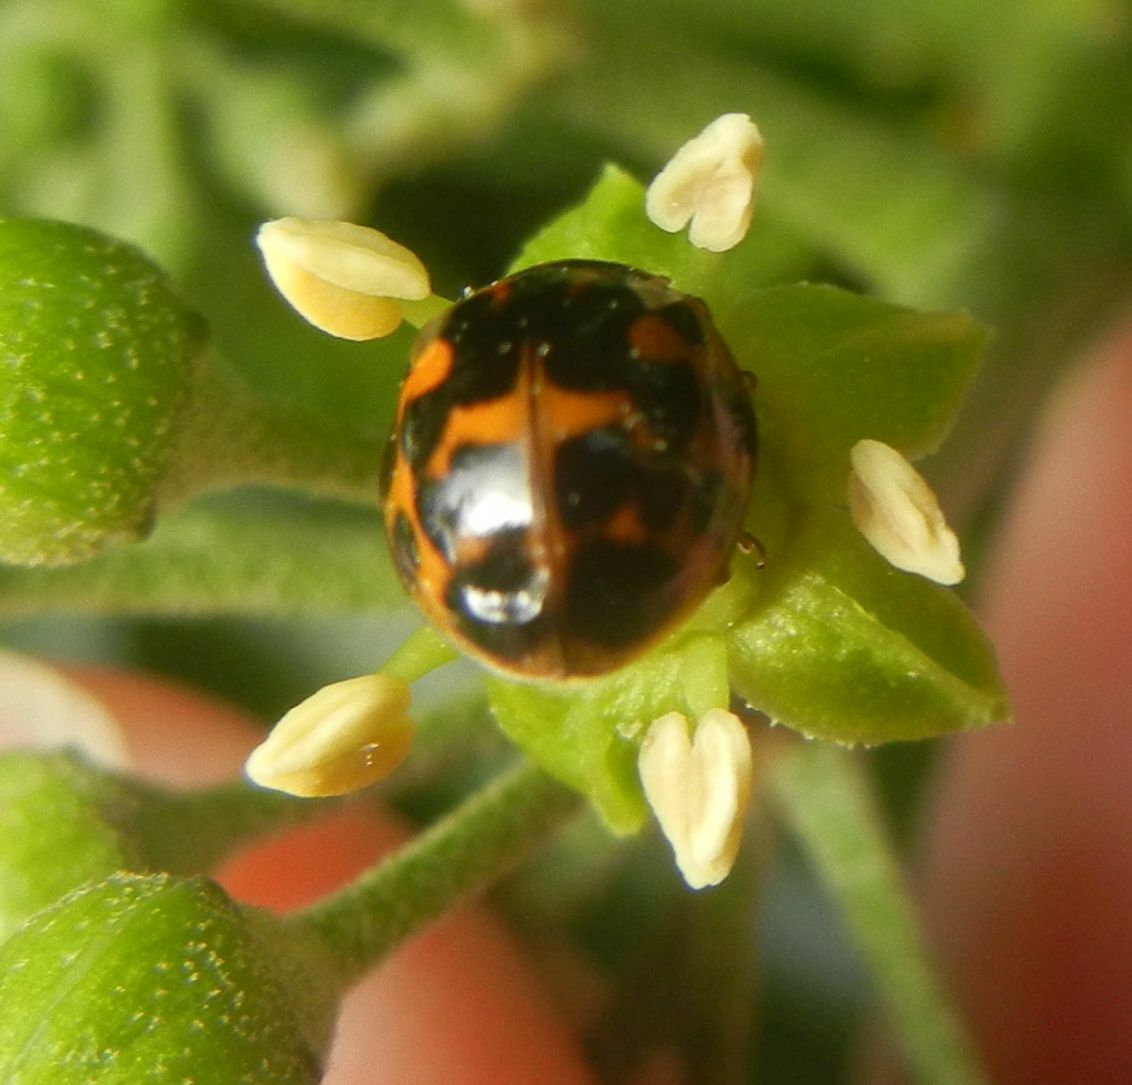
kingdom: Animalia
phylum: Arthropoda
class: Insecta
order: Coleoptera
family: Coccinellidae
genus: Harmonia
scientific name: Harmonia axyridis
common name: Harlequin ladybird
